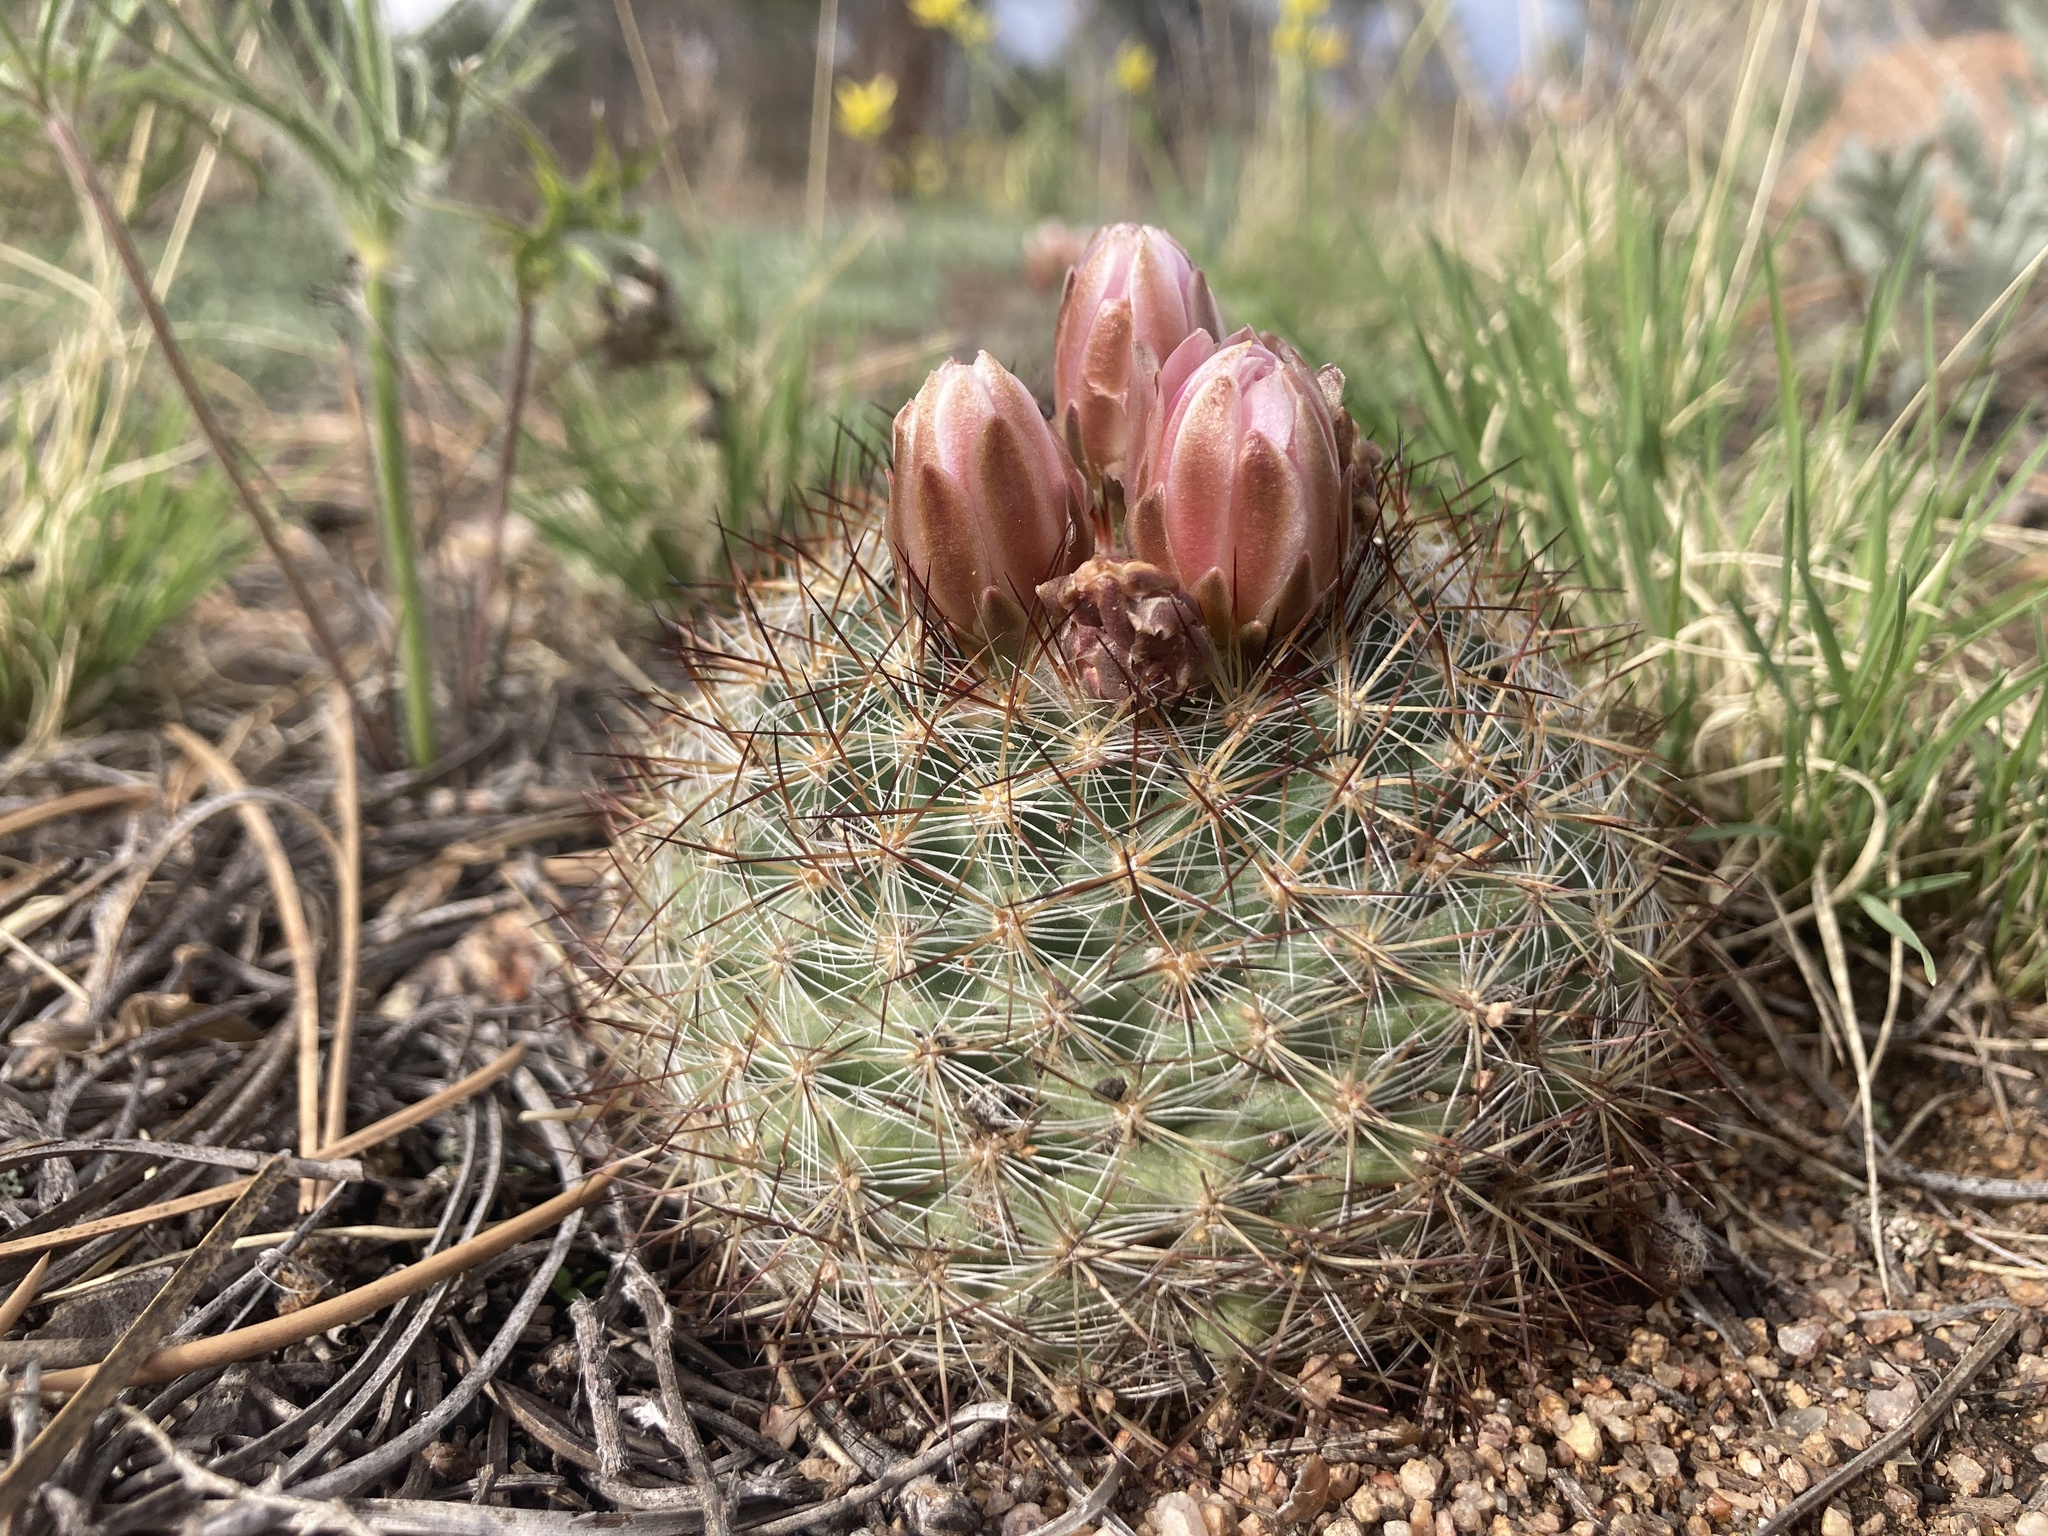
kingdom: Plantae
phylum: Tracheophyta
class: Magnoliopsida
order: Caryophyllales
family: Cactaceae
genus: Pediocactus
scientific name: Pediocactus simpsonii
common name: Simpson's hedgehog cactus
